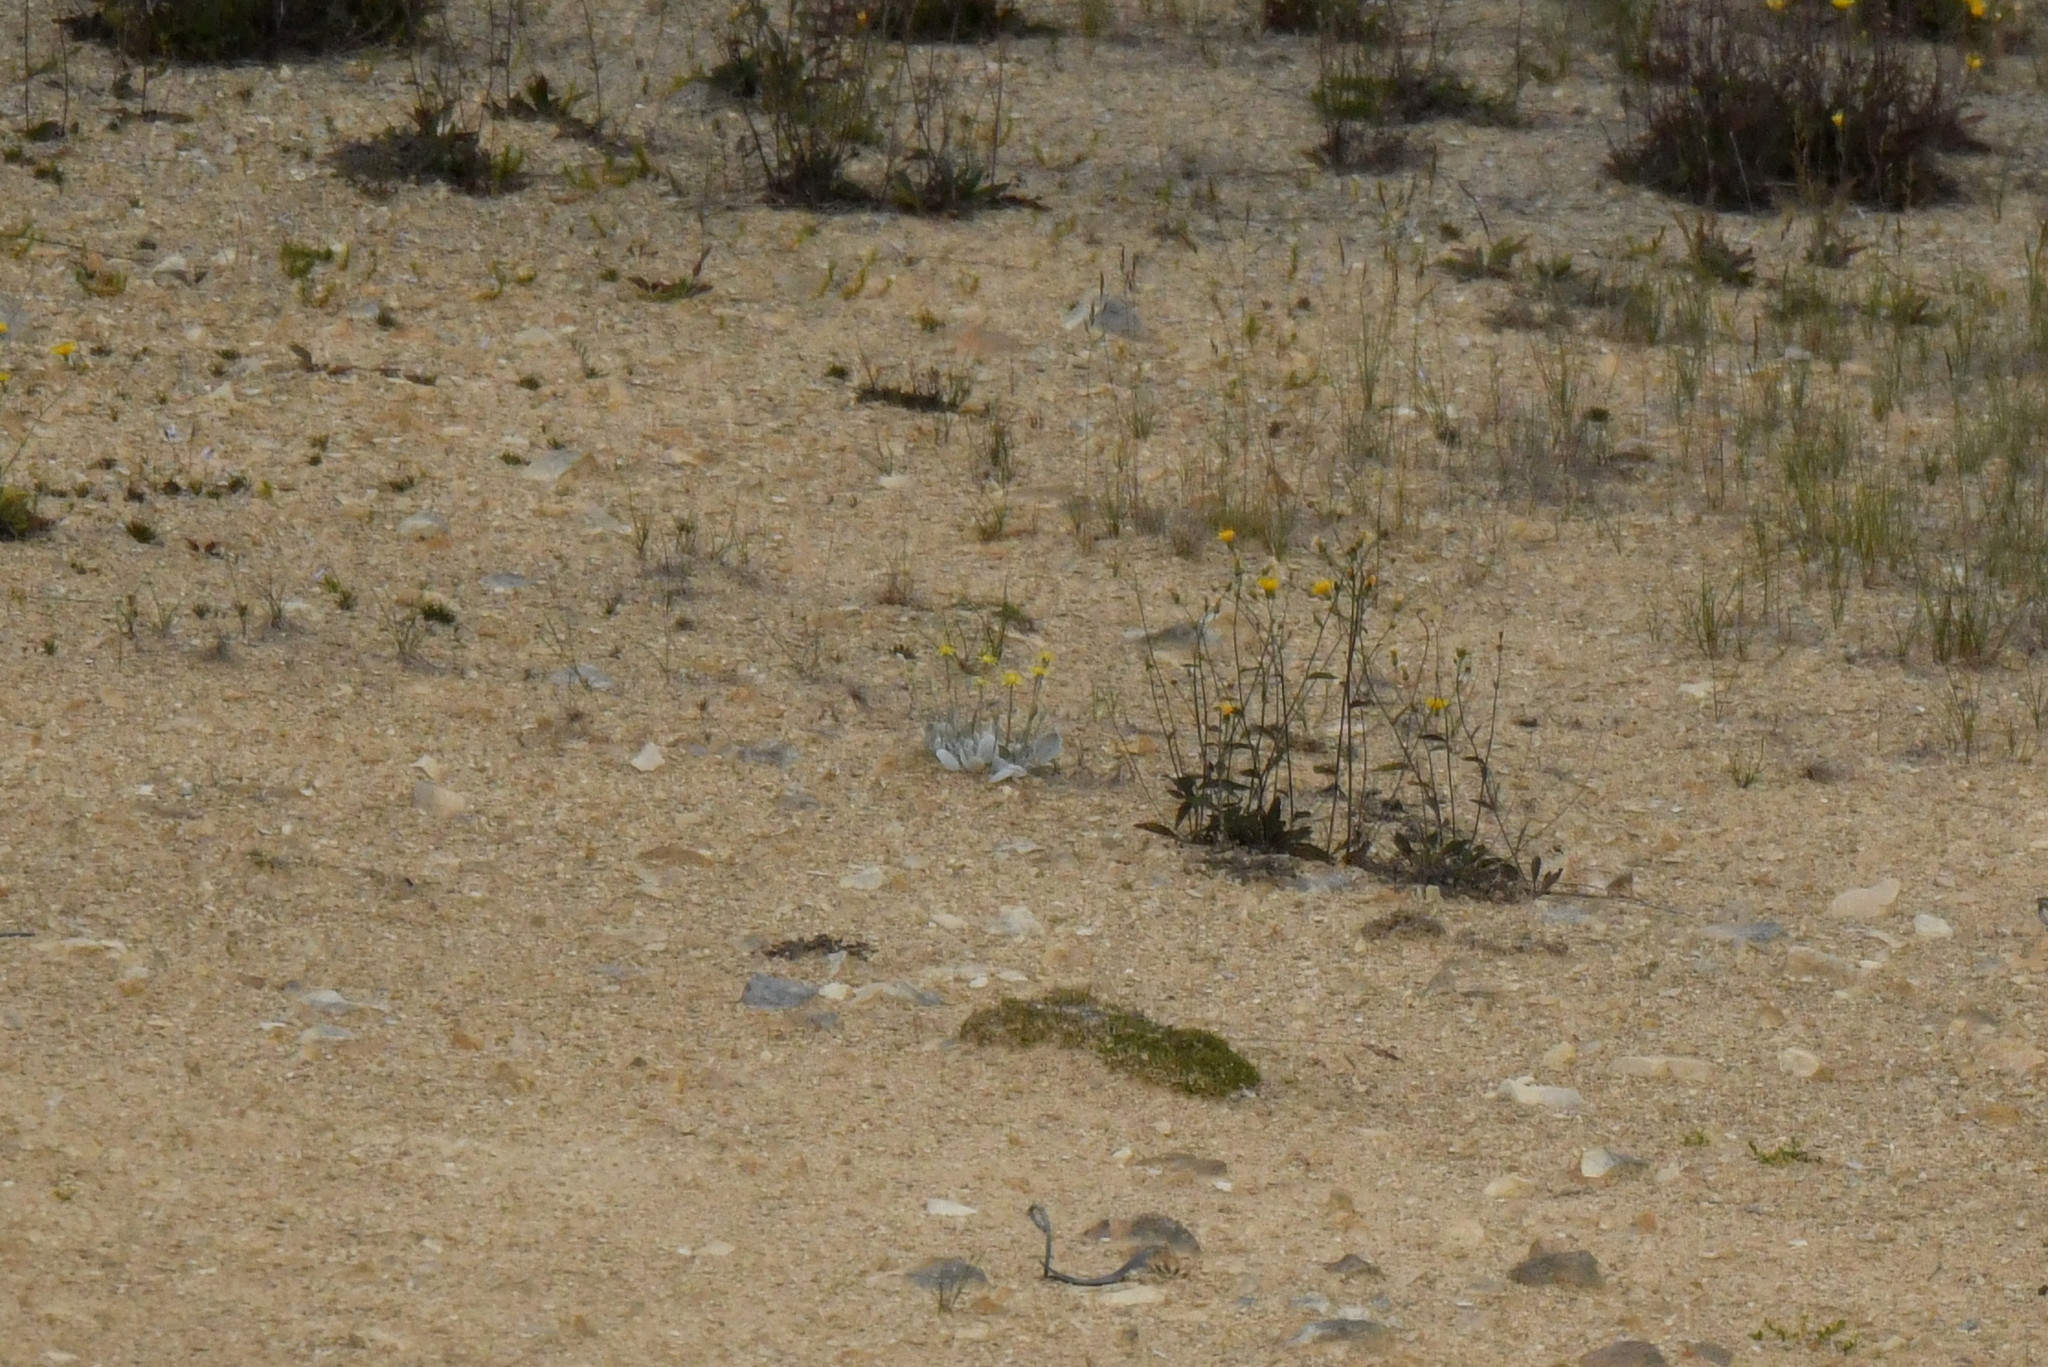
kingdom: Plantae
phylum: Tracheophyta
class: Magnoliopsida
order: Asterales
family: Asteraceae
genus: Brachyglottis
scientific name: Brachyglottis haastii
